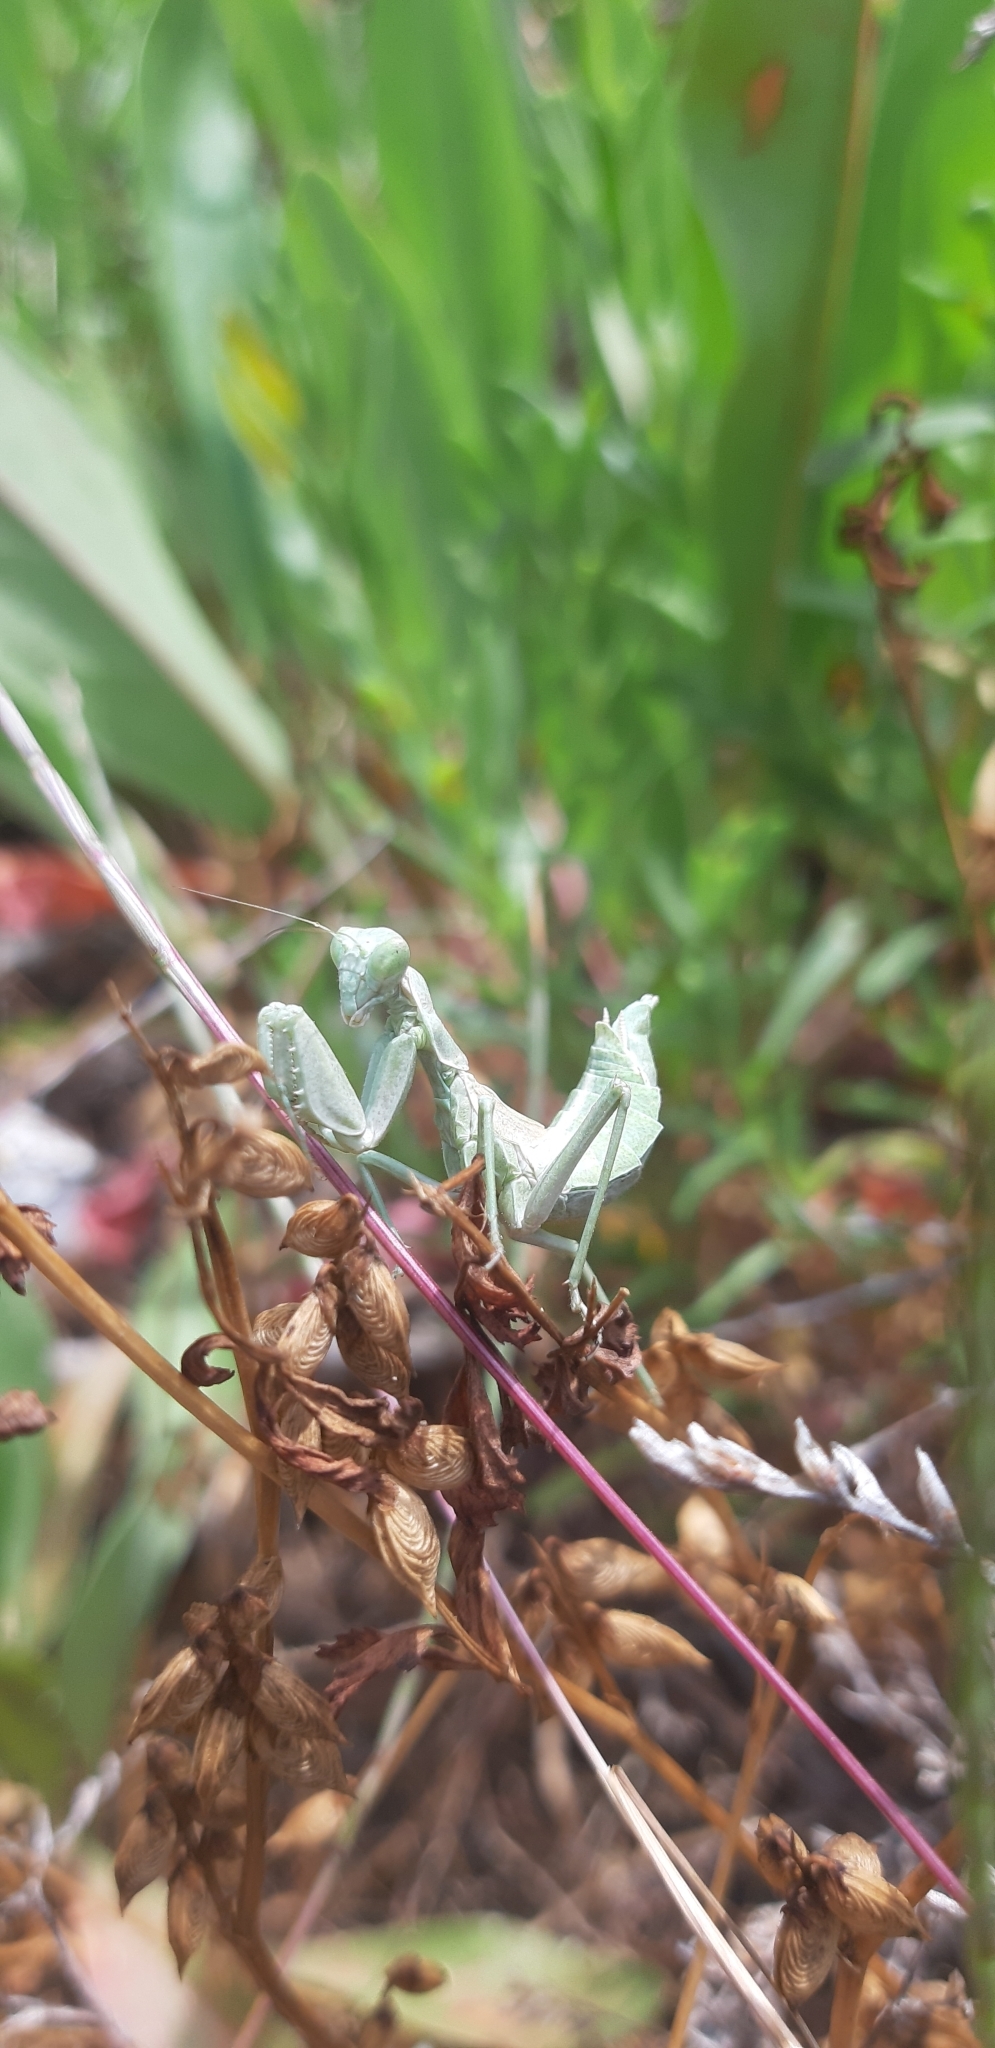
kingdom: Animalia
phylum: Arthropoda
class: Insecta
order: Mantodea
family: Amelidae
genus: Ameles
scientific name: Ameles spallanzania
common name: European dwarf mantis
